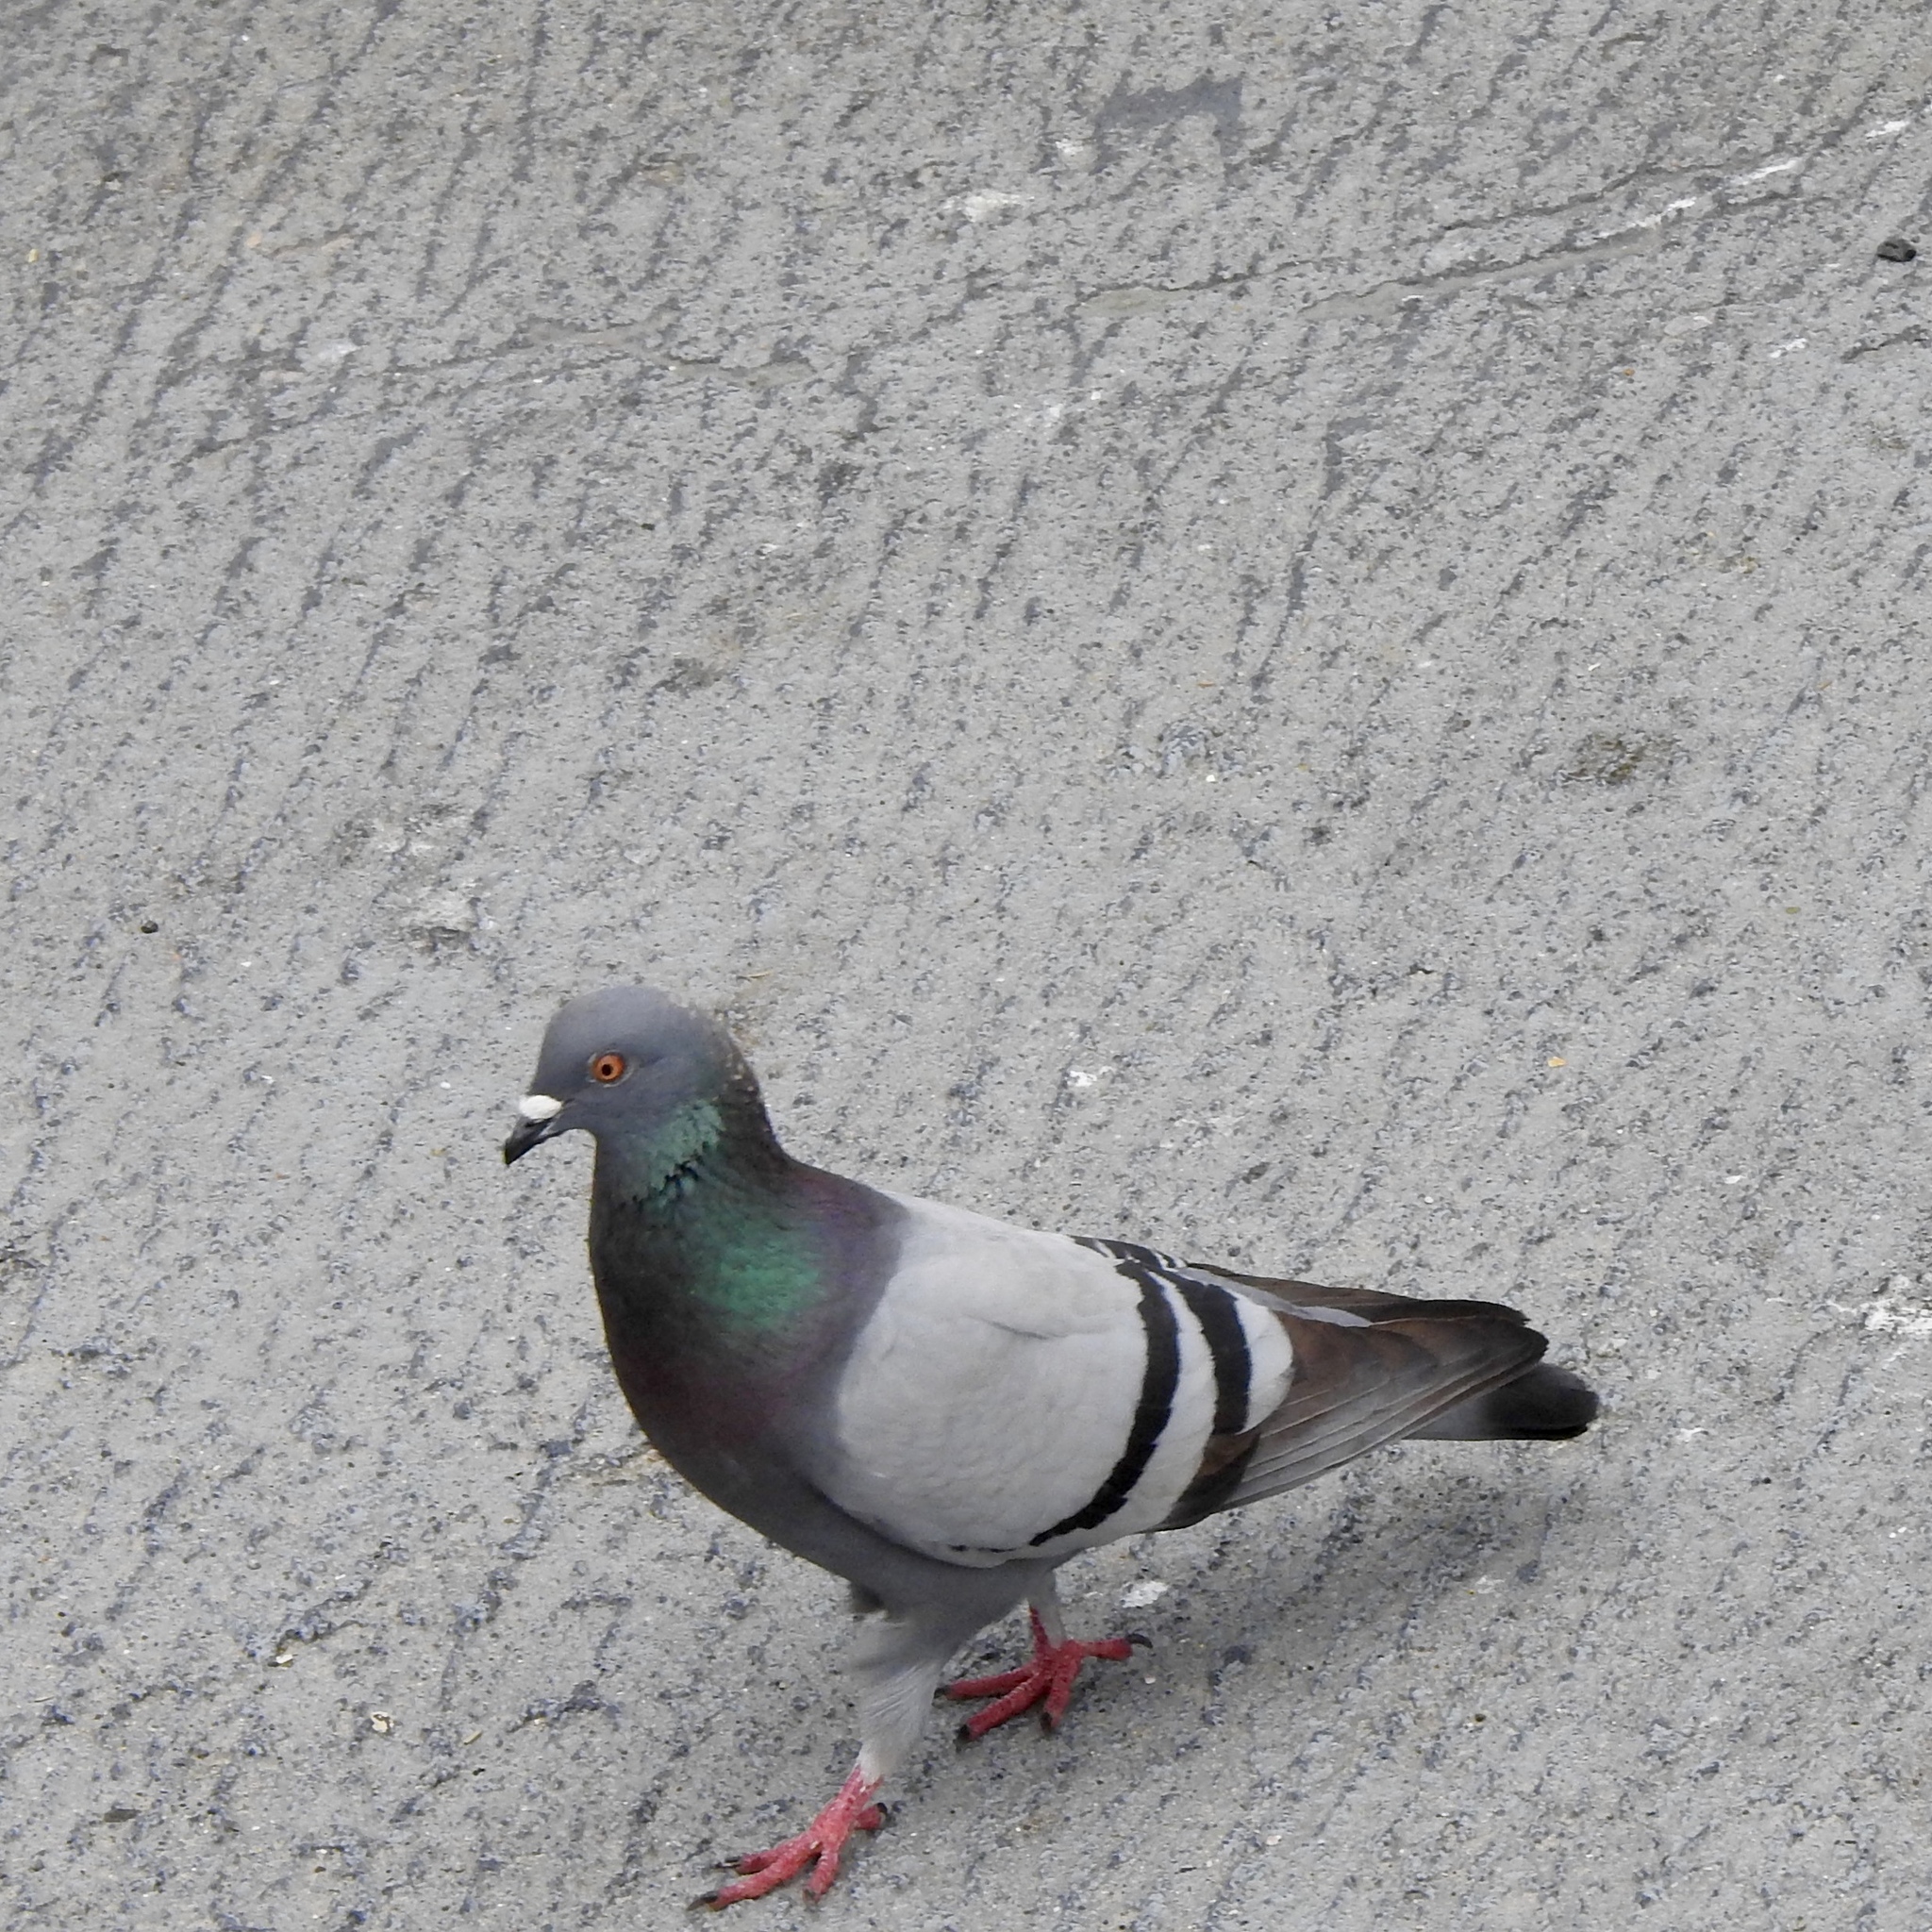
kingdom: Animalia
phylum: Chordata
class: Aves
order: Columbiformes
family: Columbidae
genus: Columba
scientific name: Columba livia
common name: Rock pigeon
